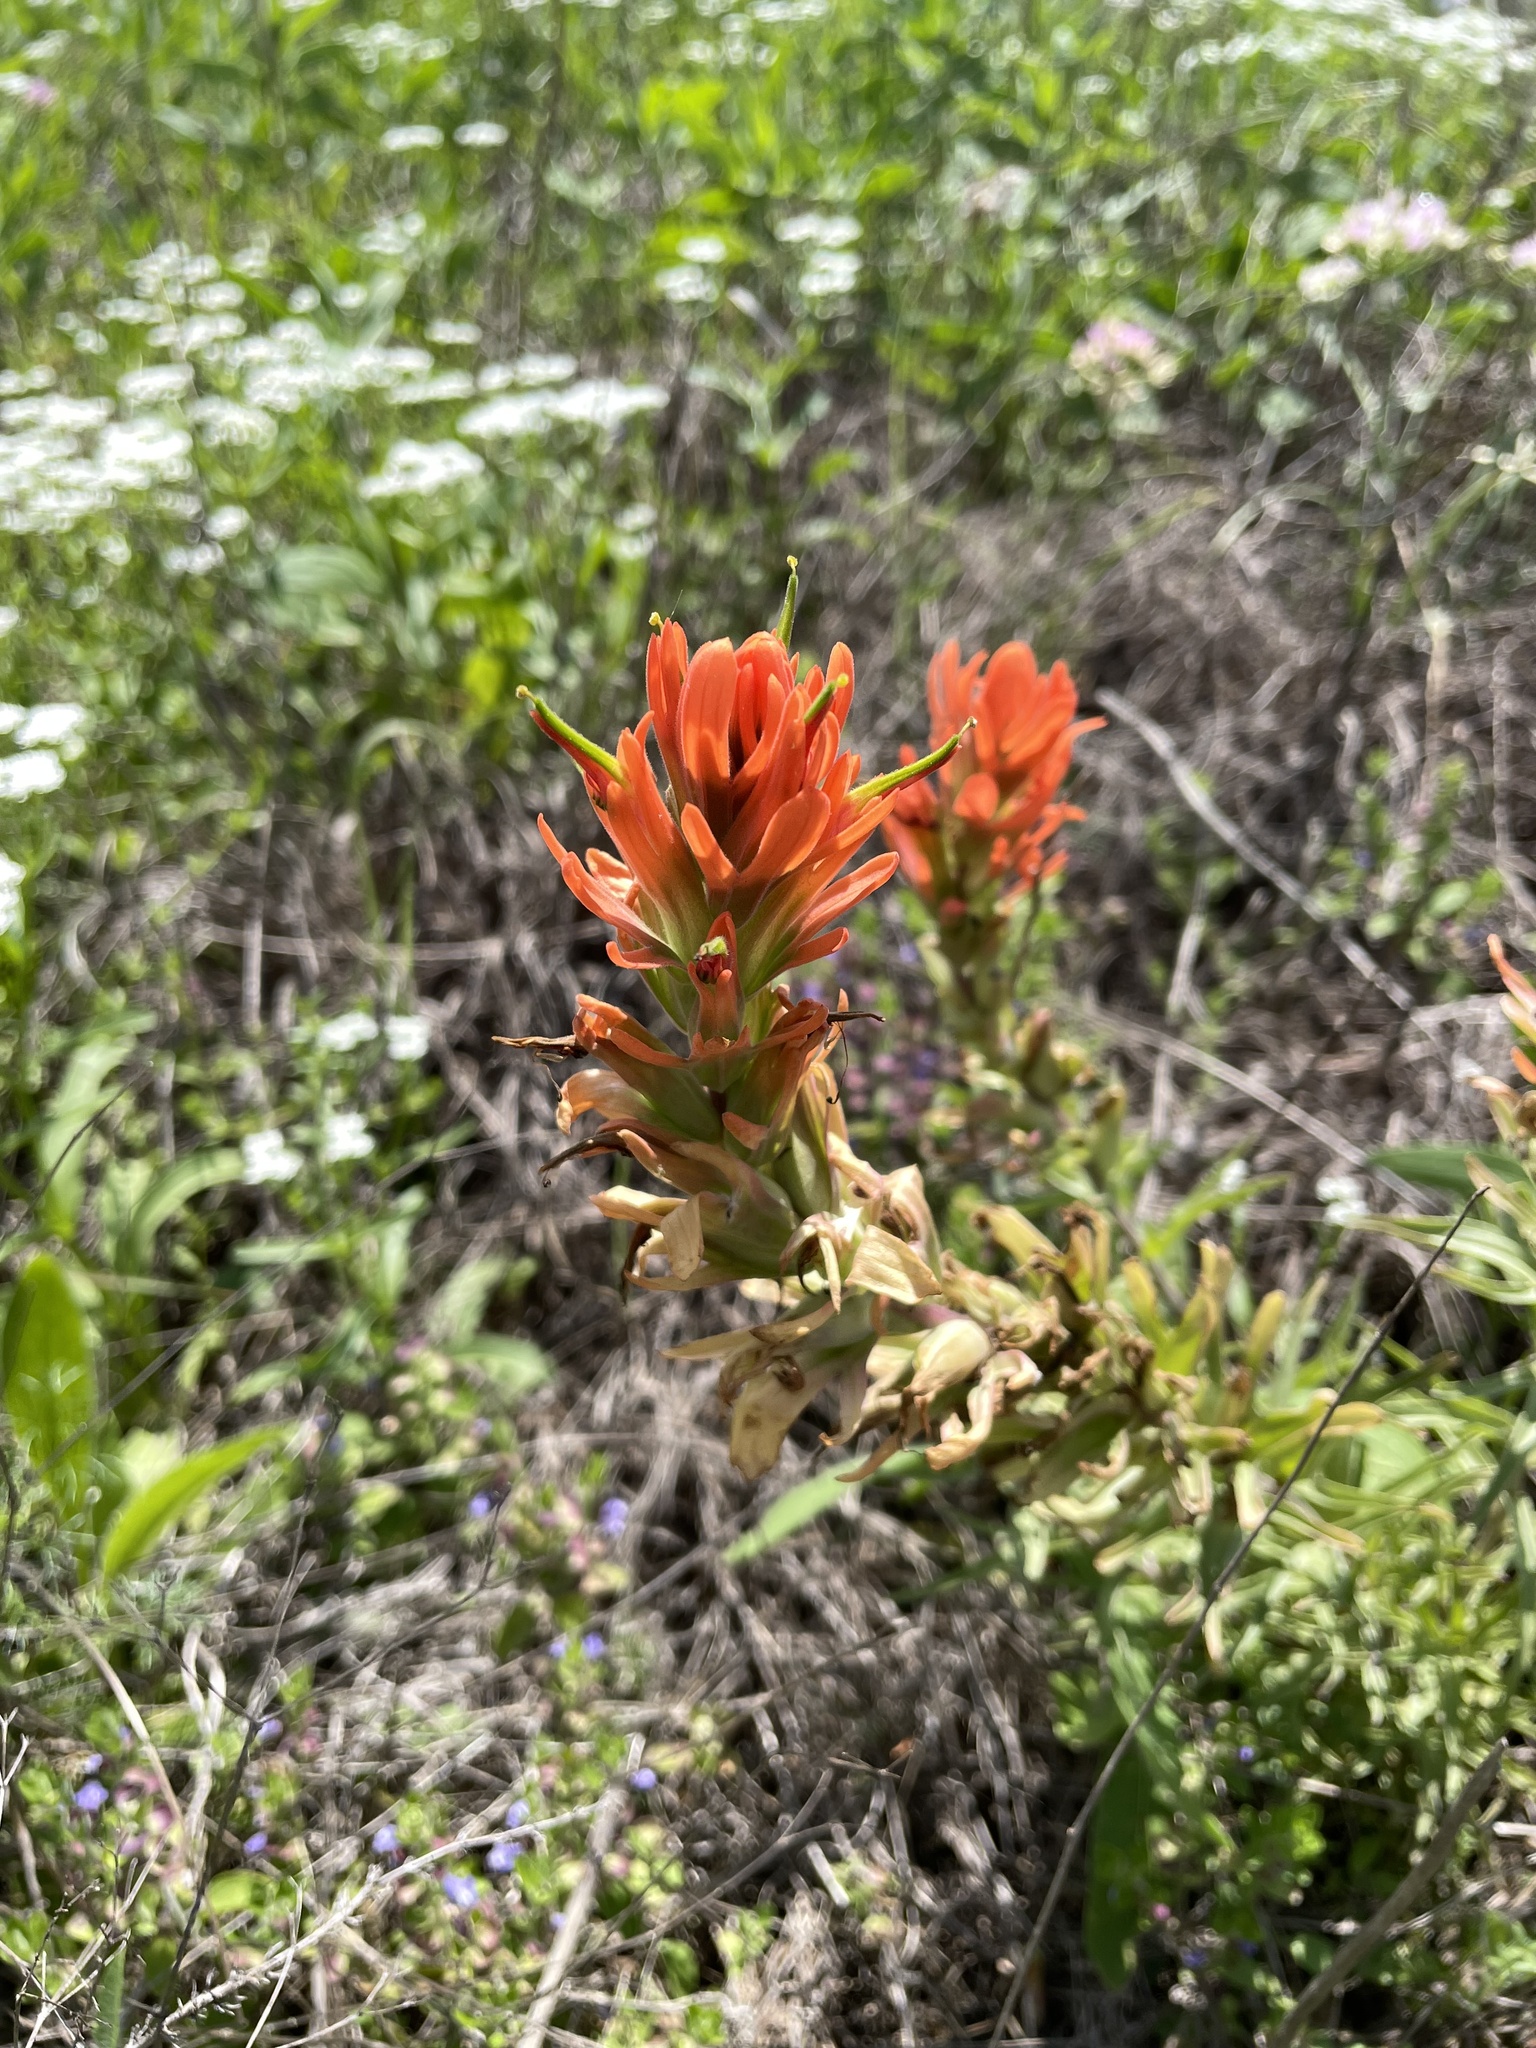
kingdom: Plantae
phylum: Tracheophyta
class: Magnoliopsida
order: Lamiales
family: Orobanchaceae
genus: Castilleja
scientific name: Castilleja lindheimeri
